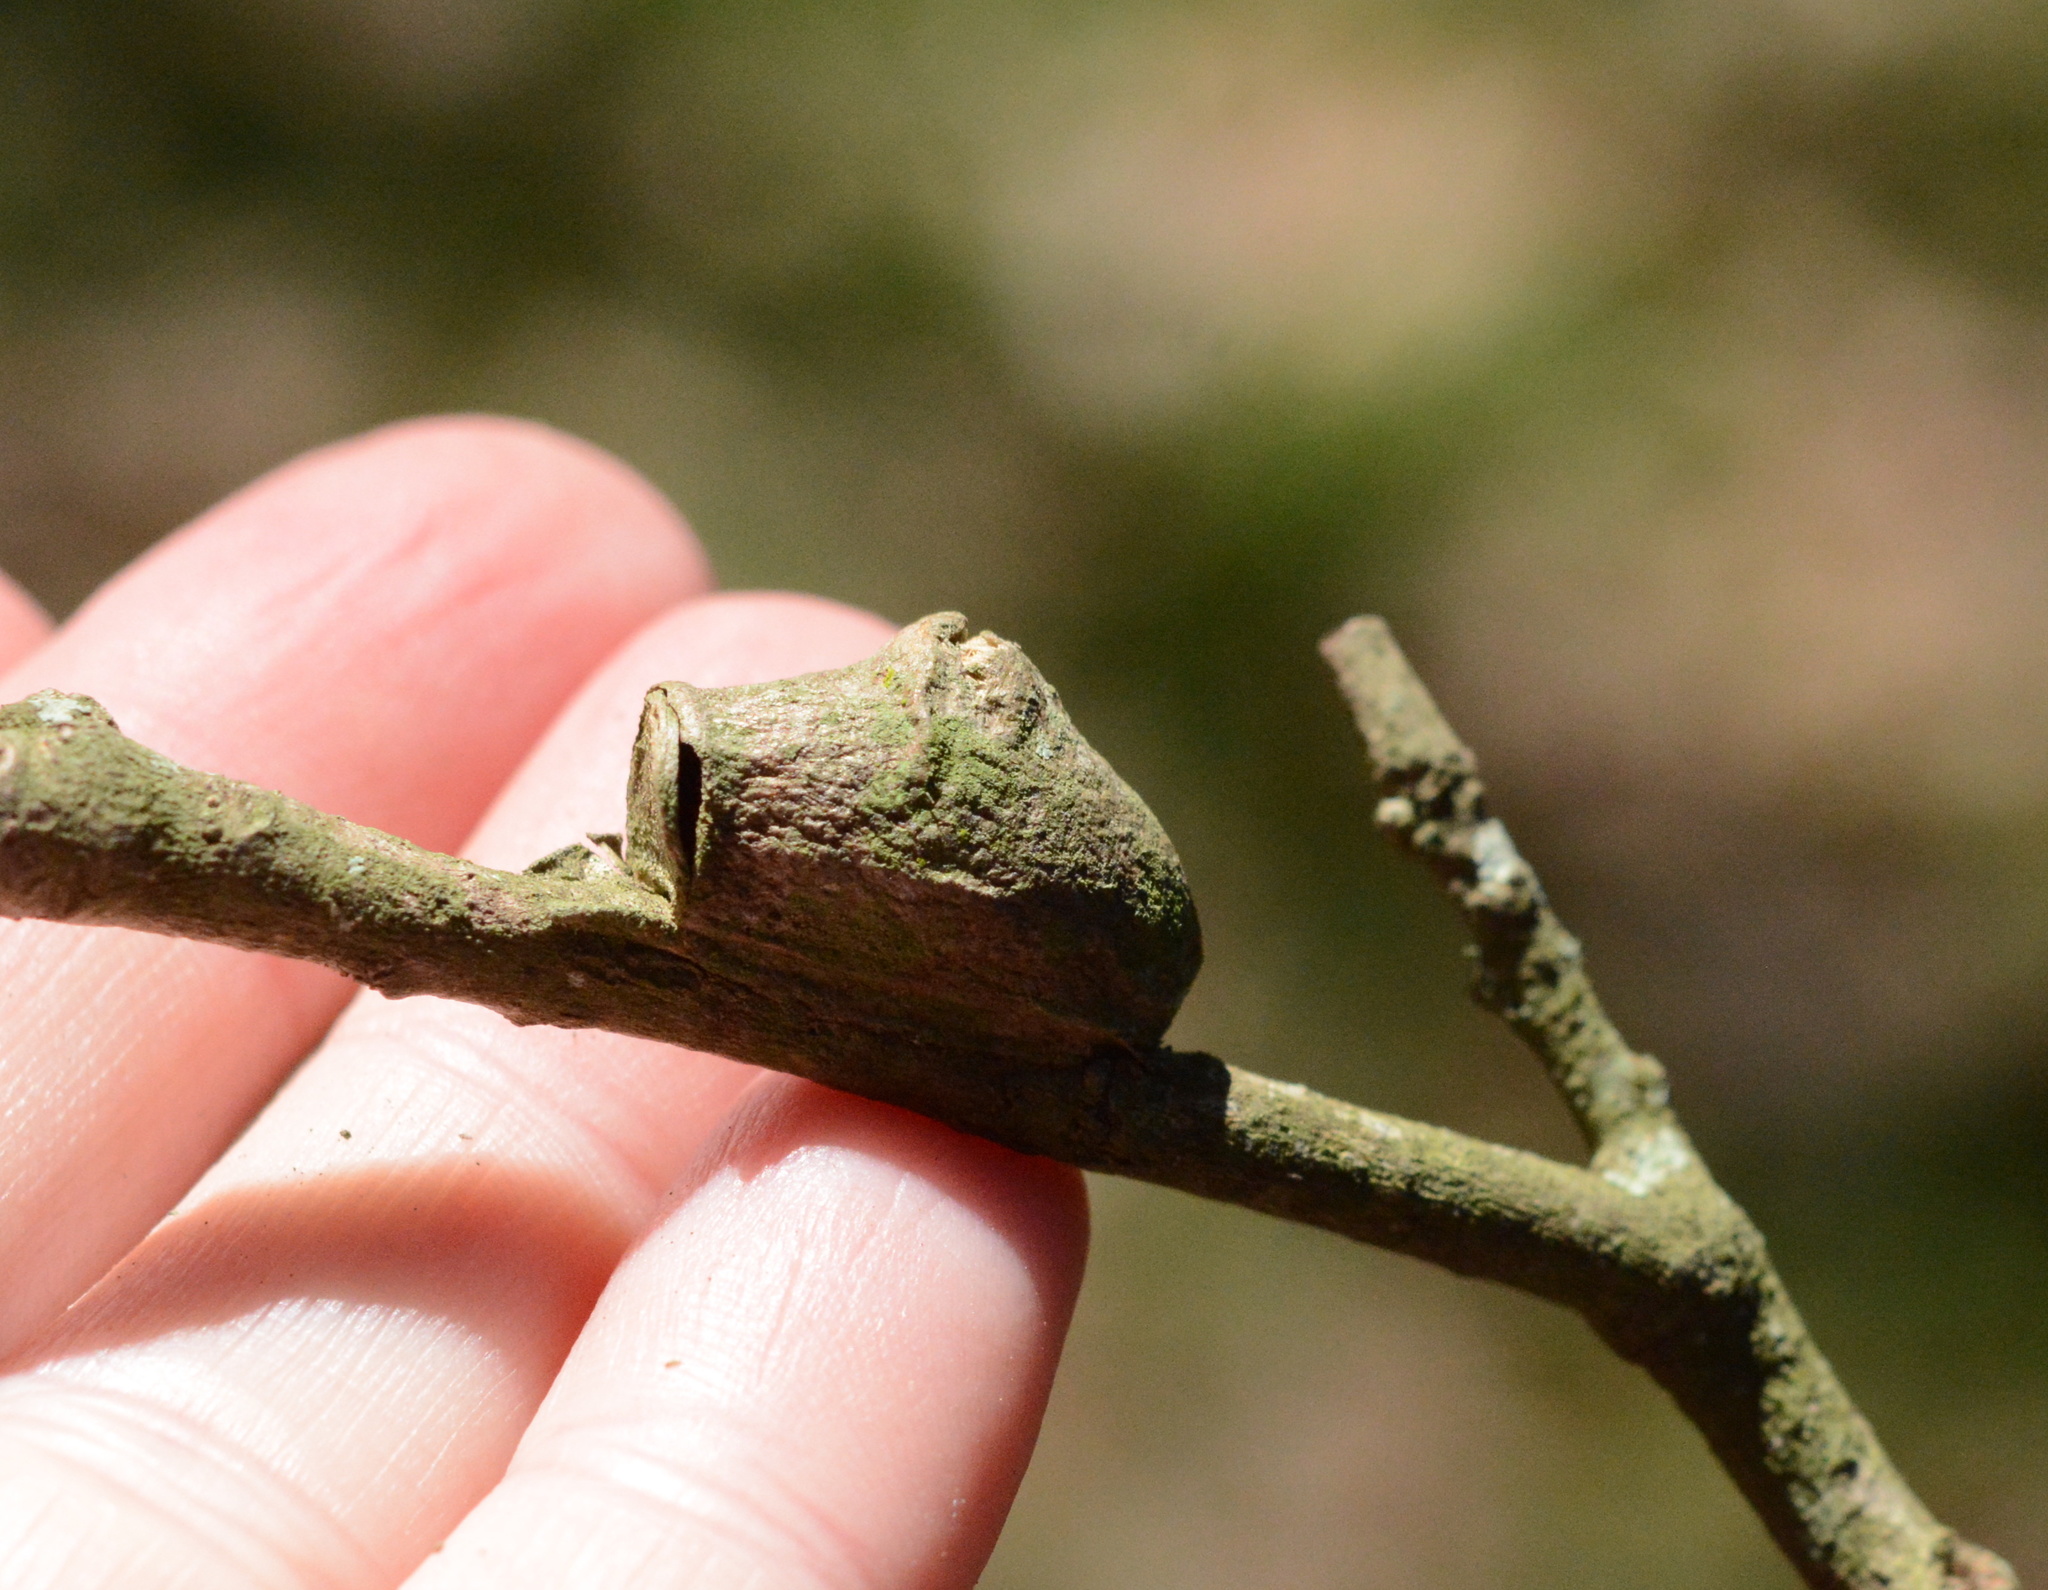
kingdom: Animalia
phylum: Arthropoda
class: Insecta
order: Lepidoptera
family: Megalopygidae
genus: Megalopyge
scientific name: Megalopyge
